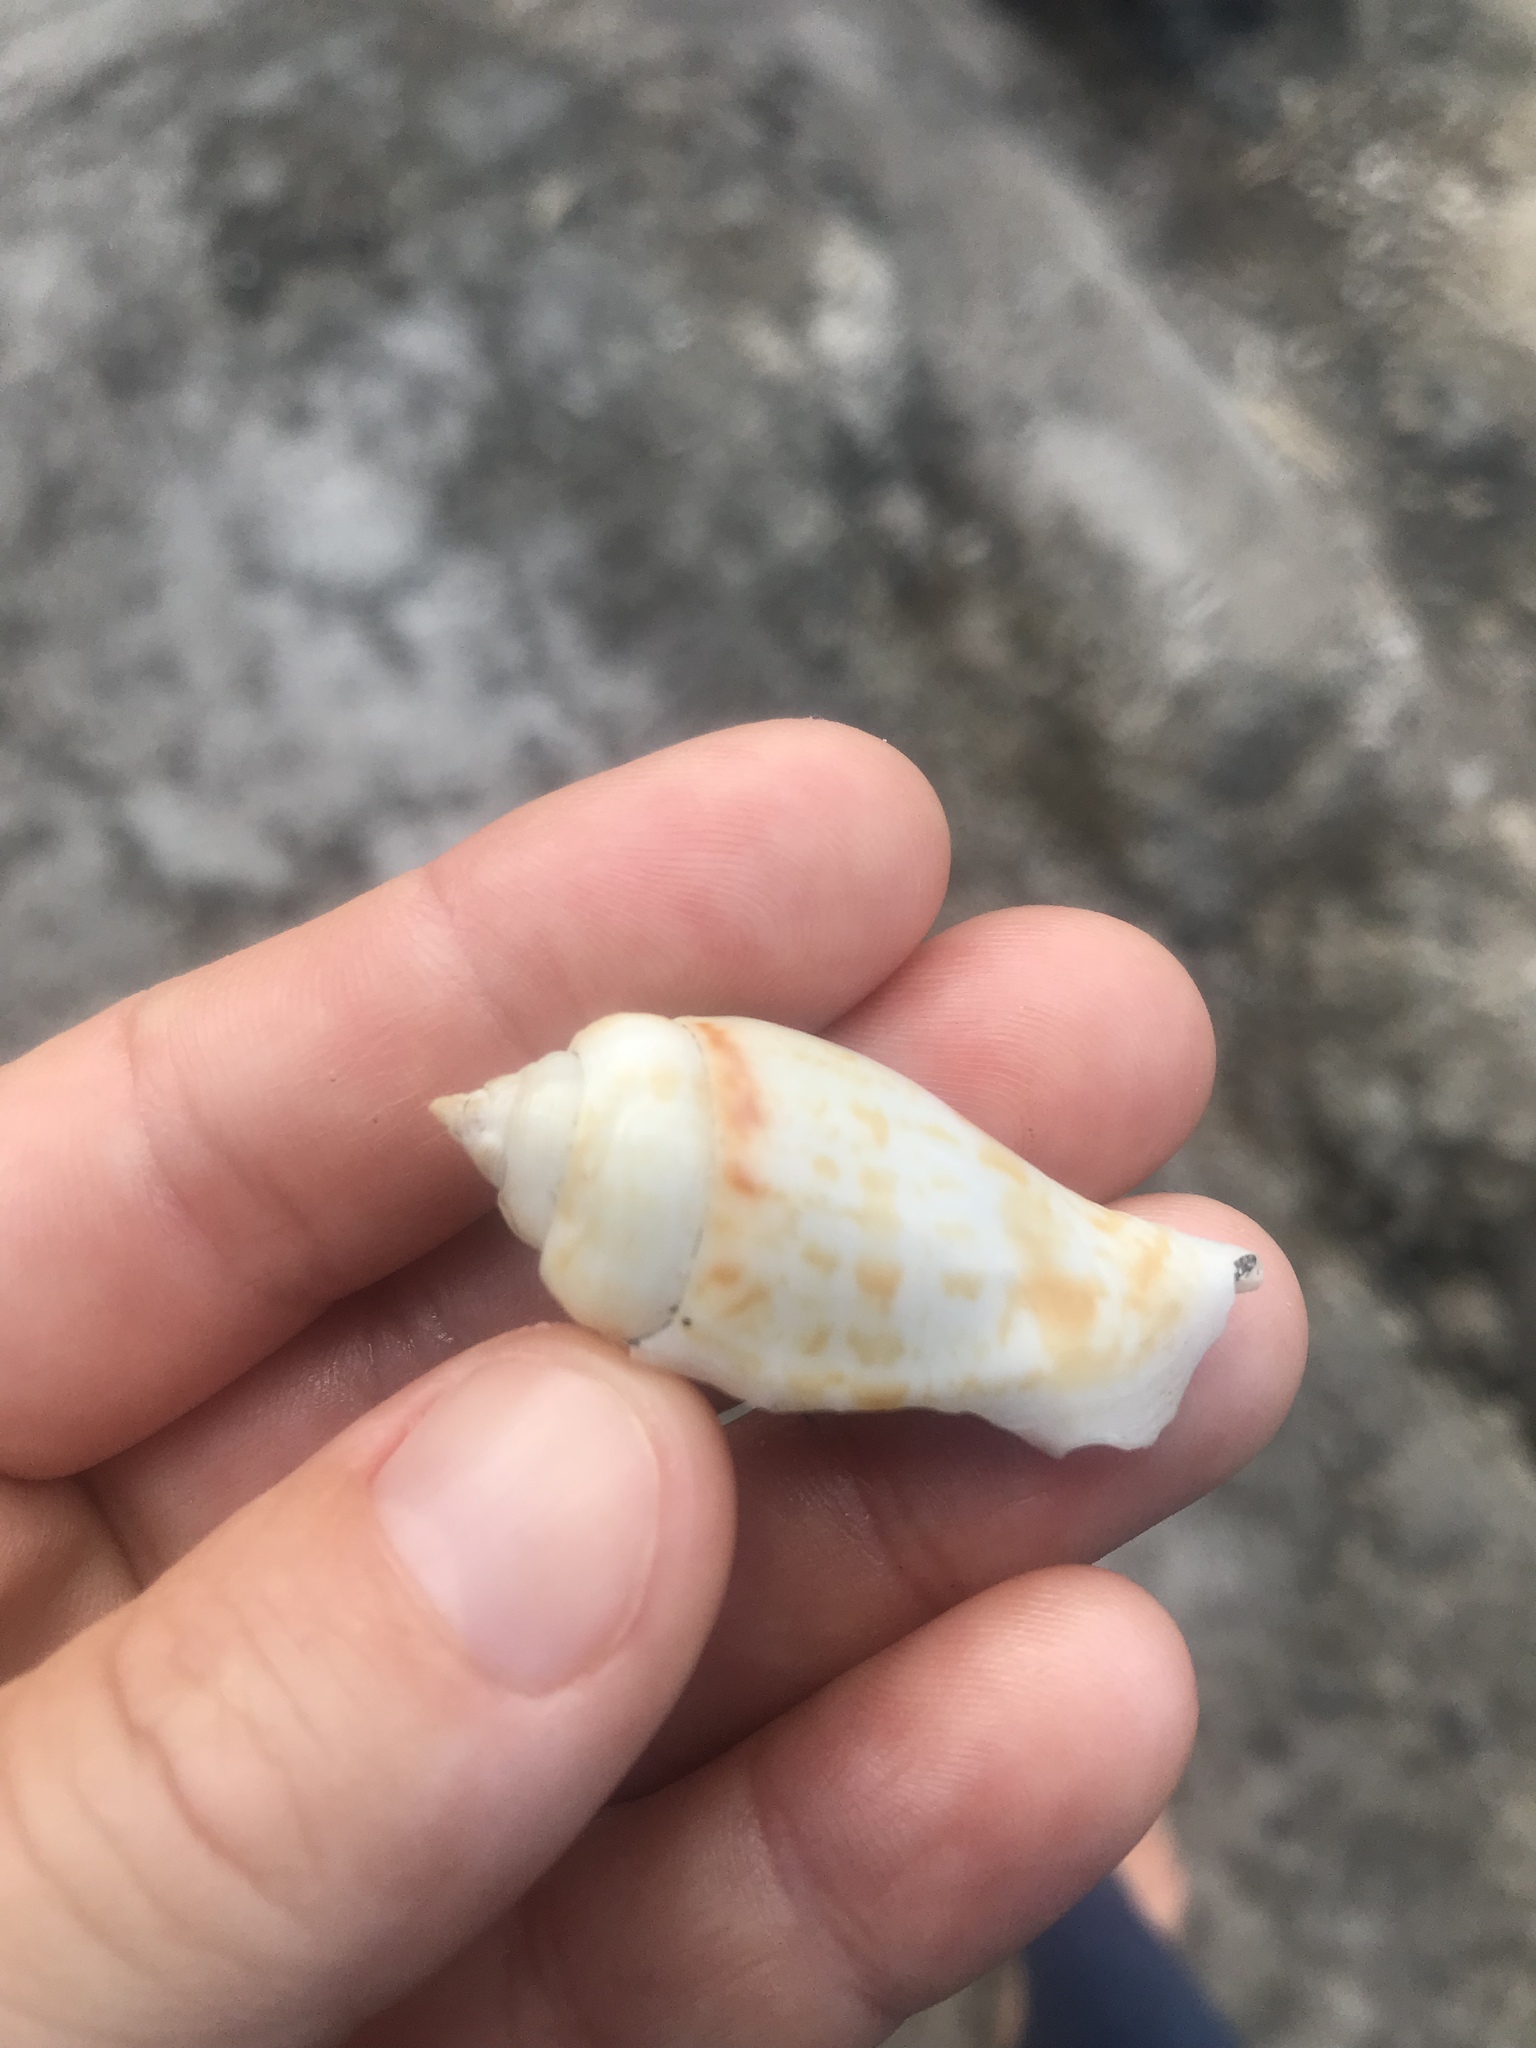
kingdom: Animalia
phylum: Mollusca
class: Gastropoda
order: Littorinimorpha
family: Strombidae
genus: Gibberulus
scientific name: Gibberulus gibberulus
